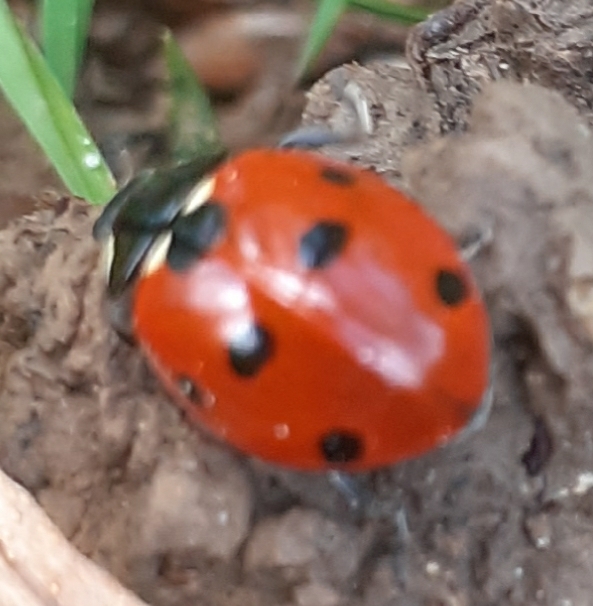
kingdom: Animalia
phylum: Arthropoda
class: Insecta
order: Coleoptera
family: Coccinellidae
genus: Coccinella
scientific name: Coccinella septempunctata
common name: Sevenspotted lady beetle
